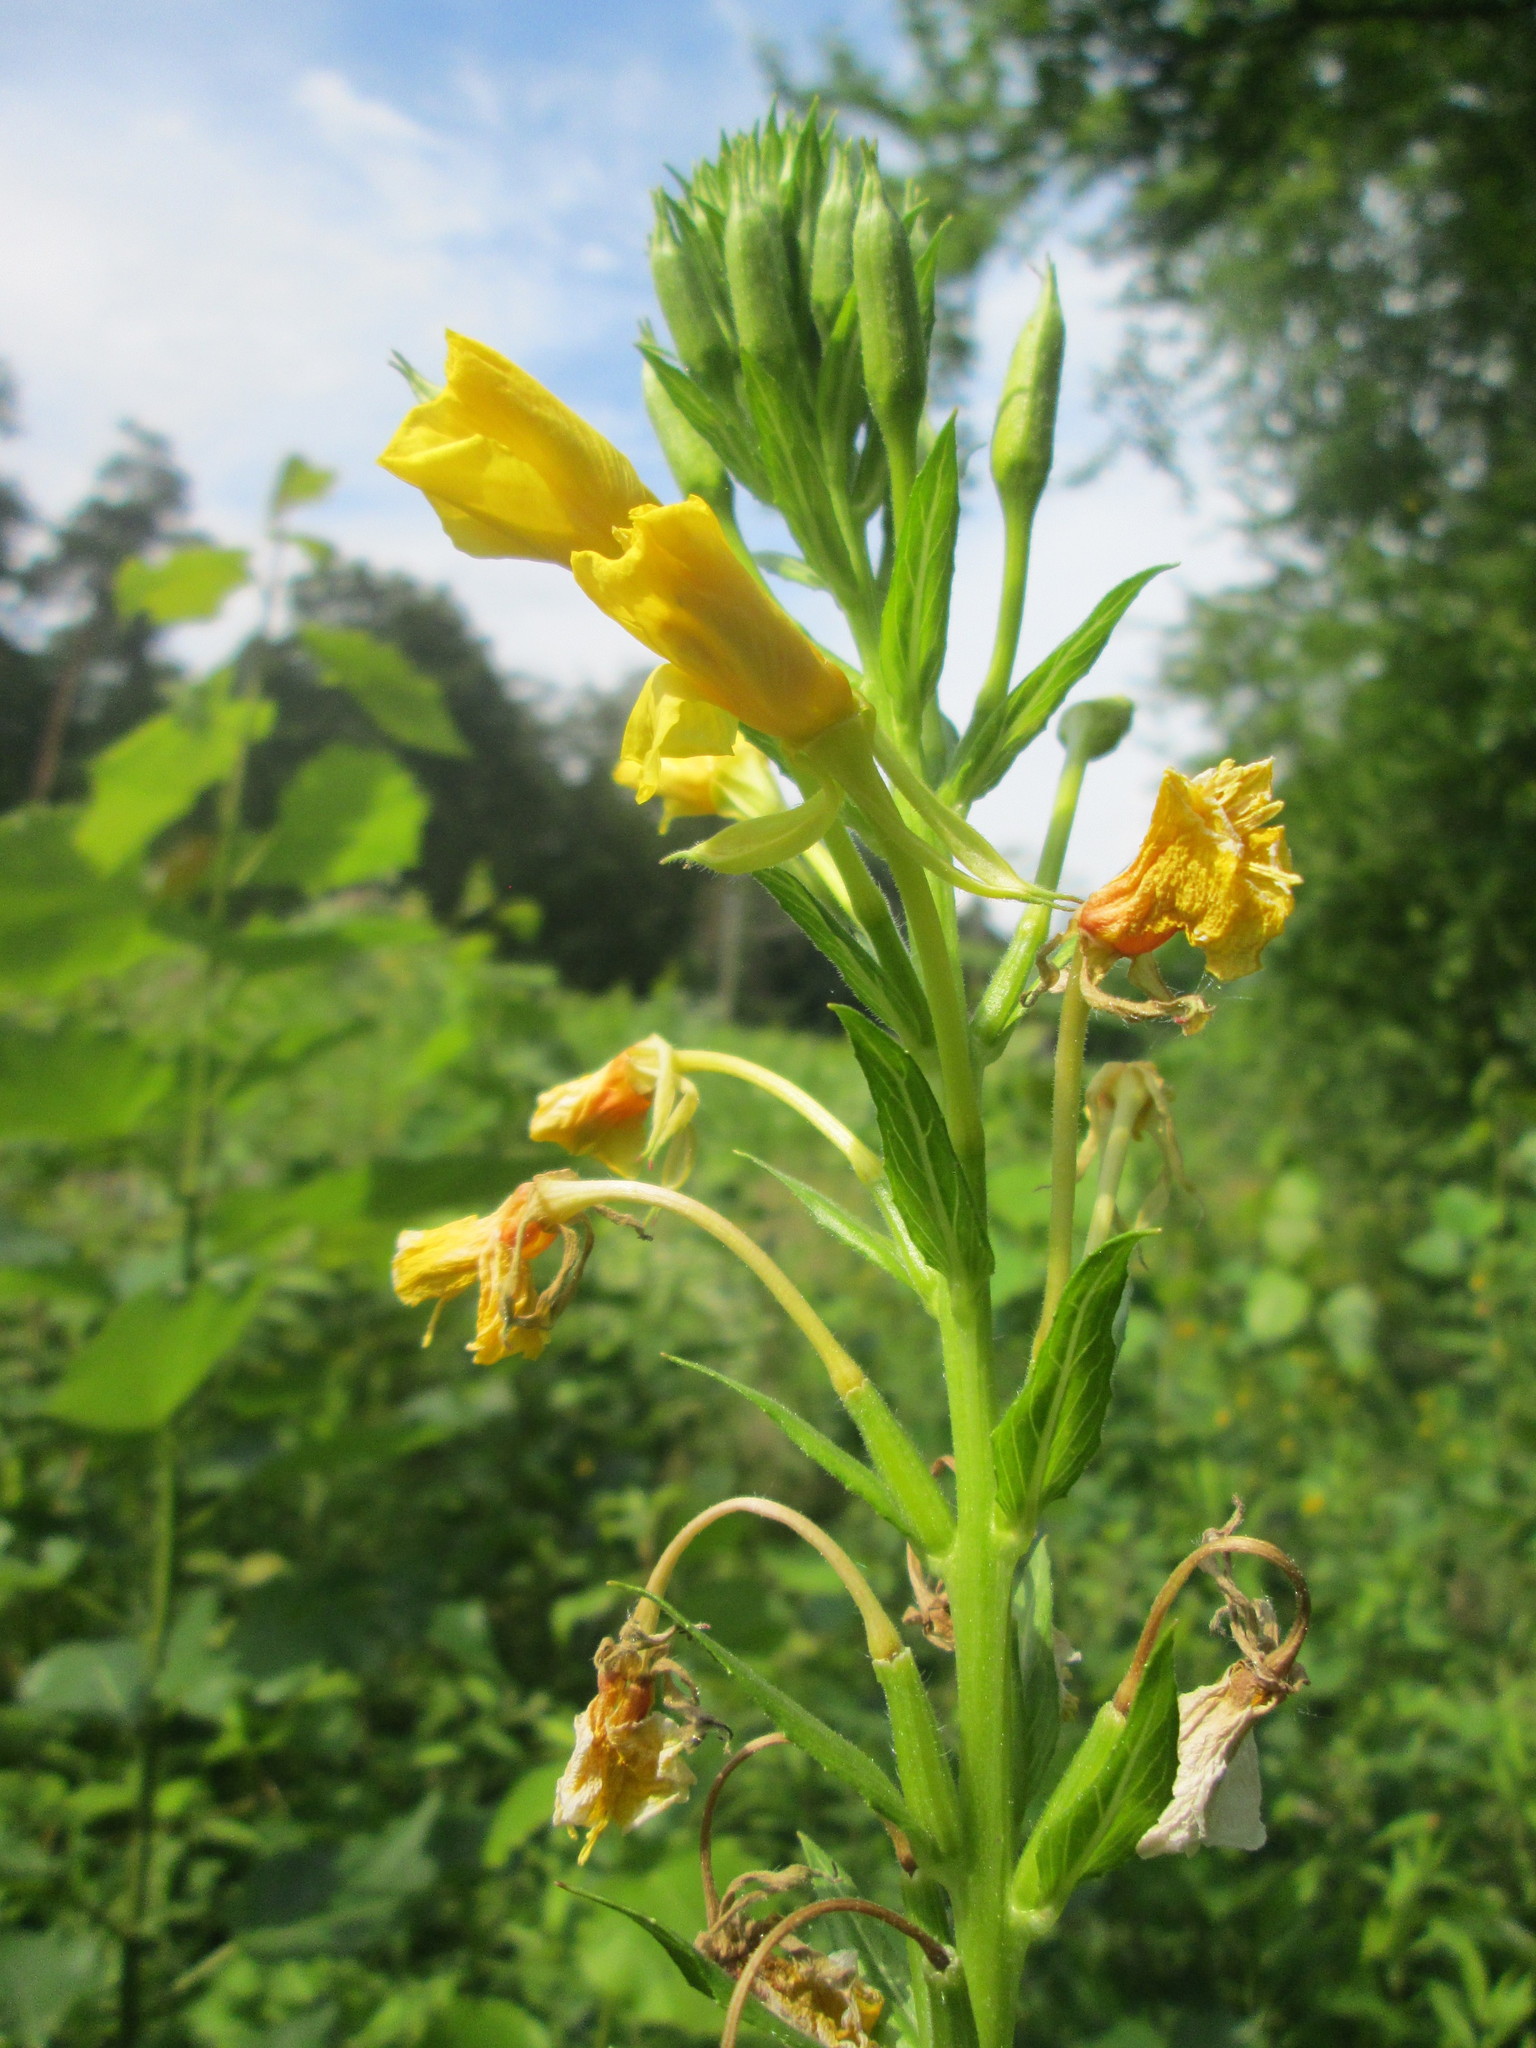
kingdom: Plantae
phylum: Tracheophyta
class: Magnoliopsida
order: Myrtales
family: Onagraceae
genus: Oenothera
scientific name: Oenothera biennis
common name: Common evening-primrose
